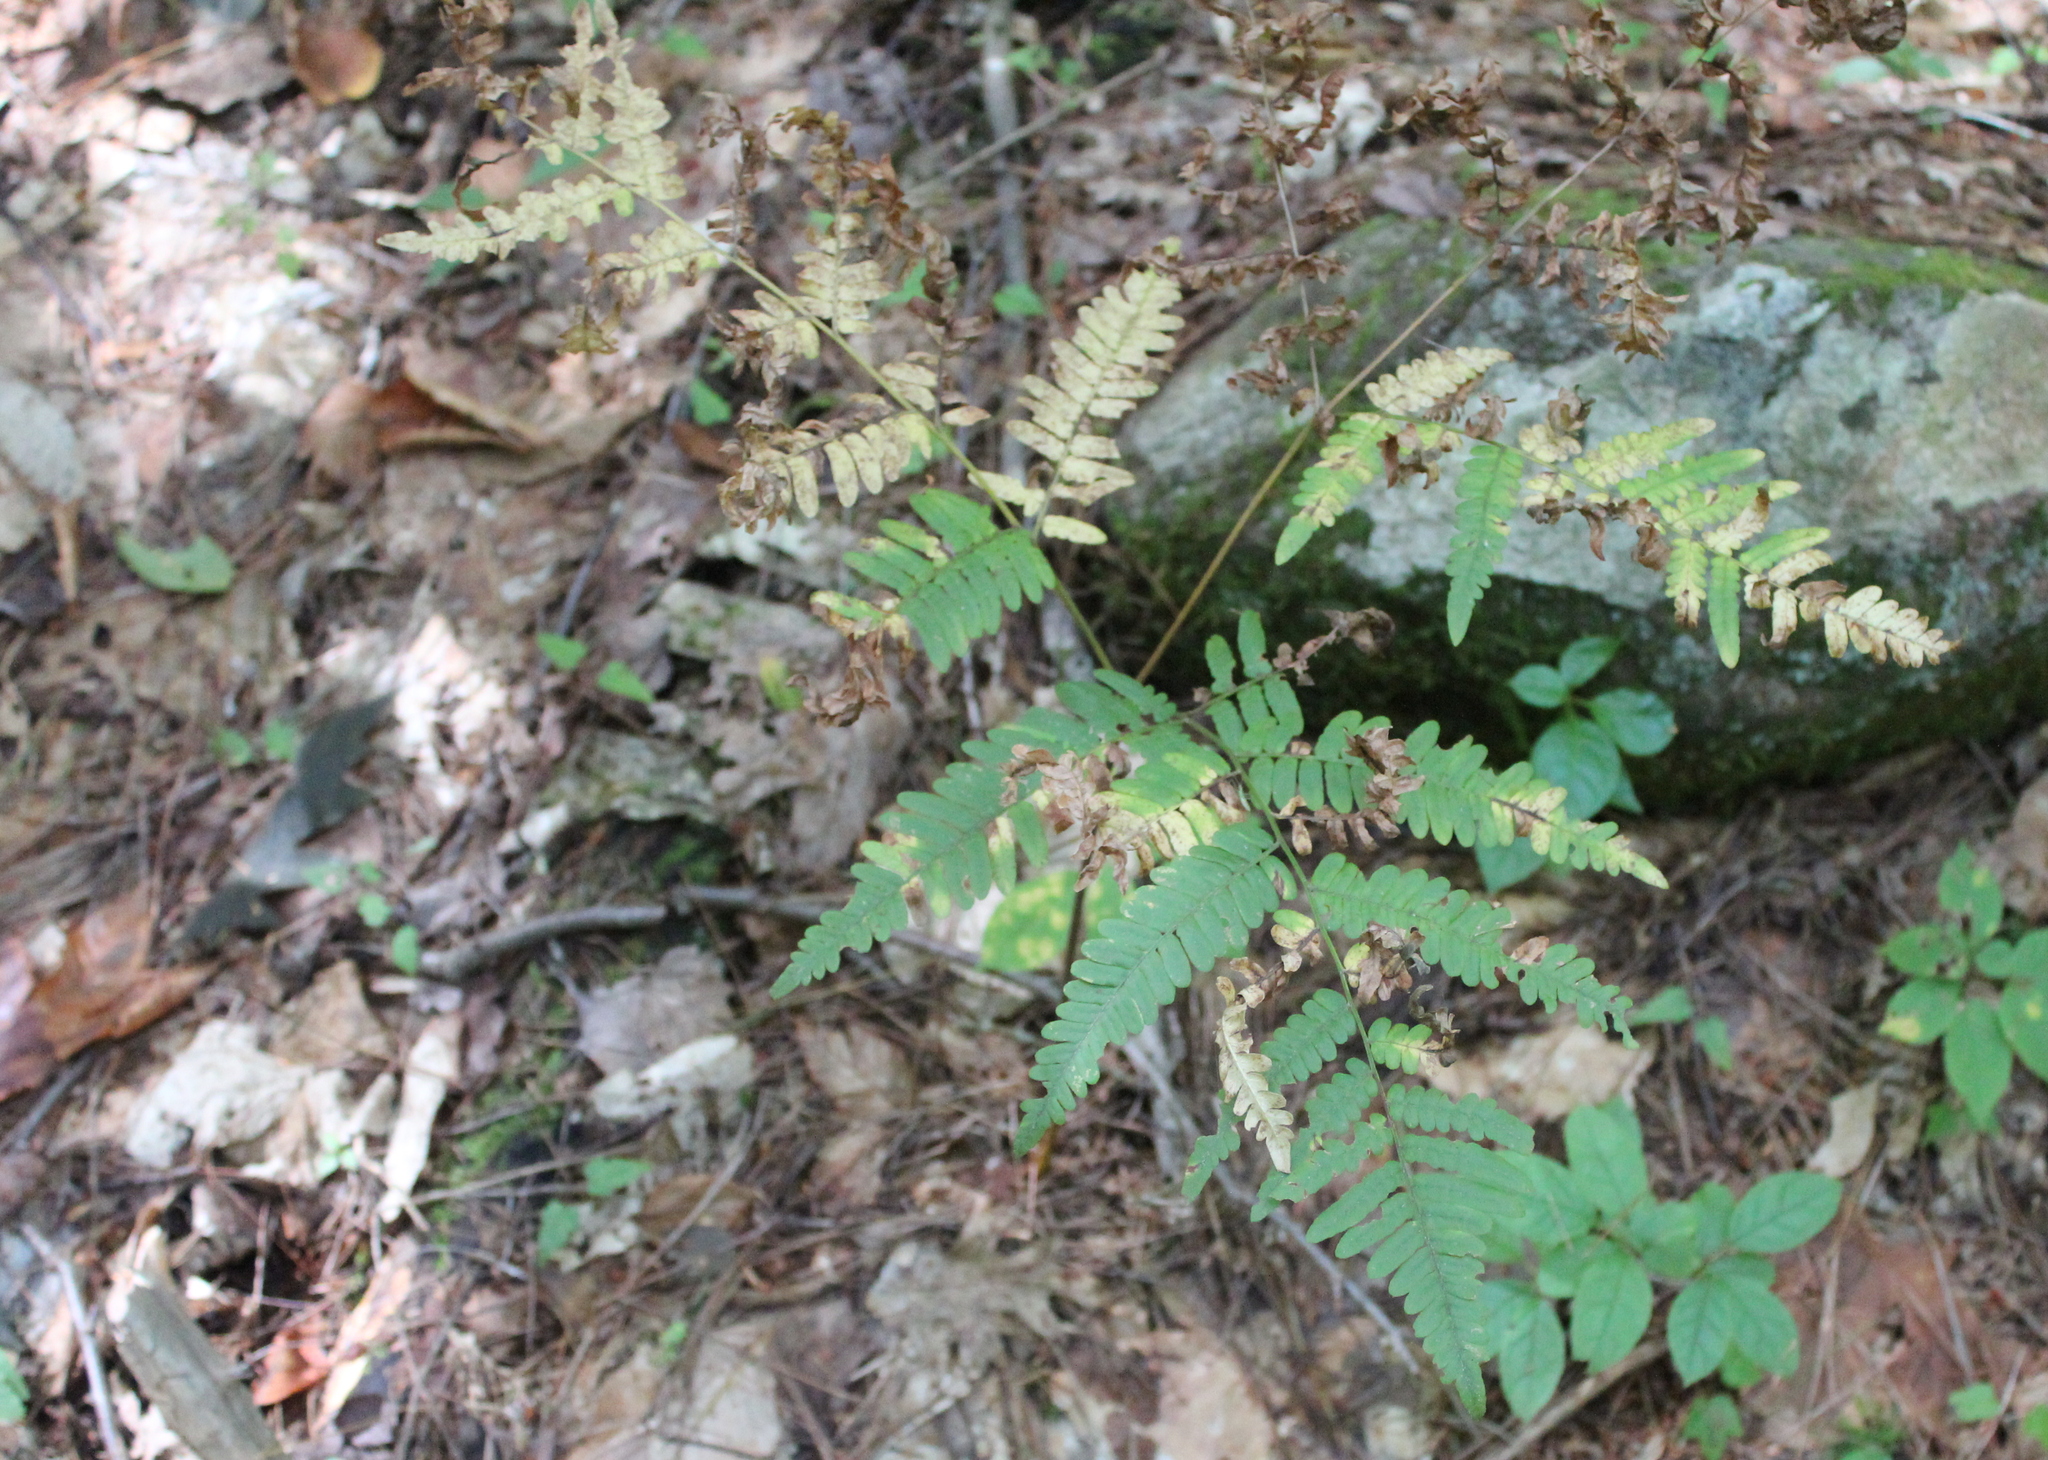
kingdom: Plantae
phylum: Tracheophyta
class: Polypodiopsida
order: Polypodiales
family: Dennstaedtiaceae
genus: Pteridium
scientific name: Pteridium aquilinum
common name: Bracken
